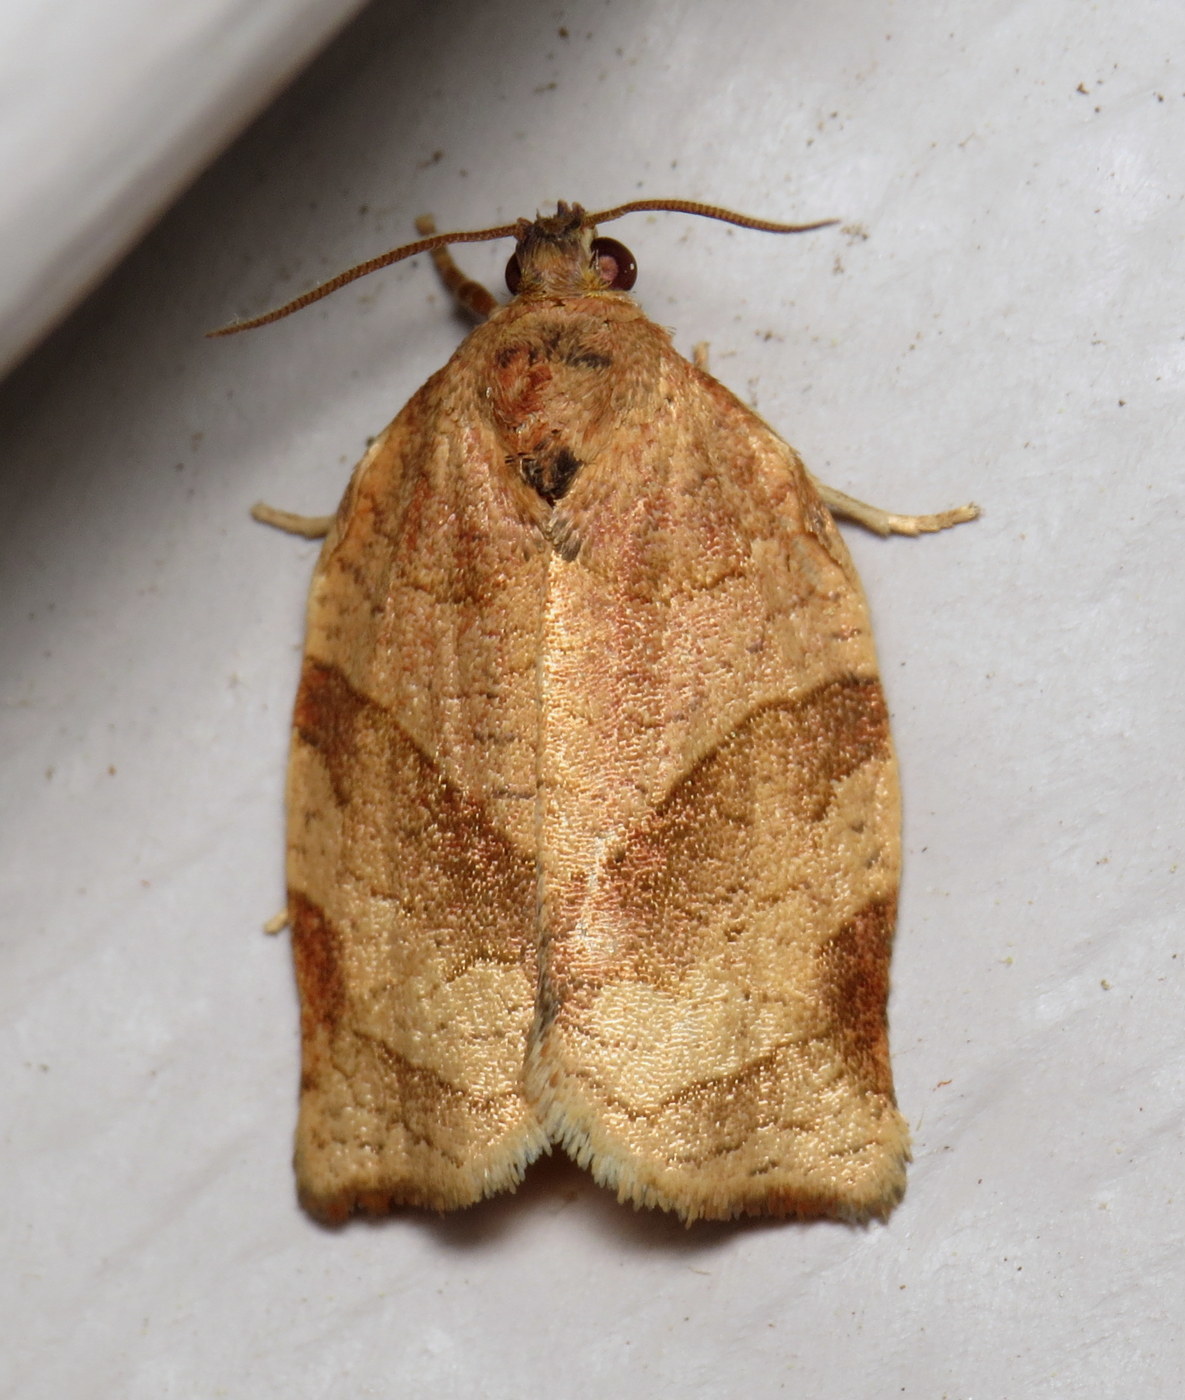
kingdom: Animalia
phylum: Arthropoda
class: Insecta
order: Lepidoptera
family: Tortricidae
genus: Choristoneura
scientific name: Choristoneura rosaceana
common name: Oblique-banded leafroller moth
